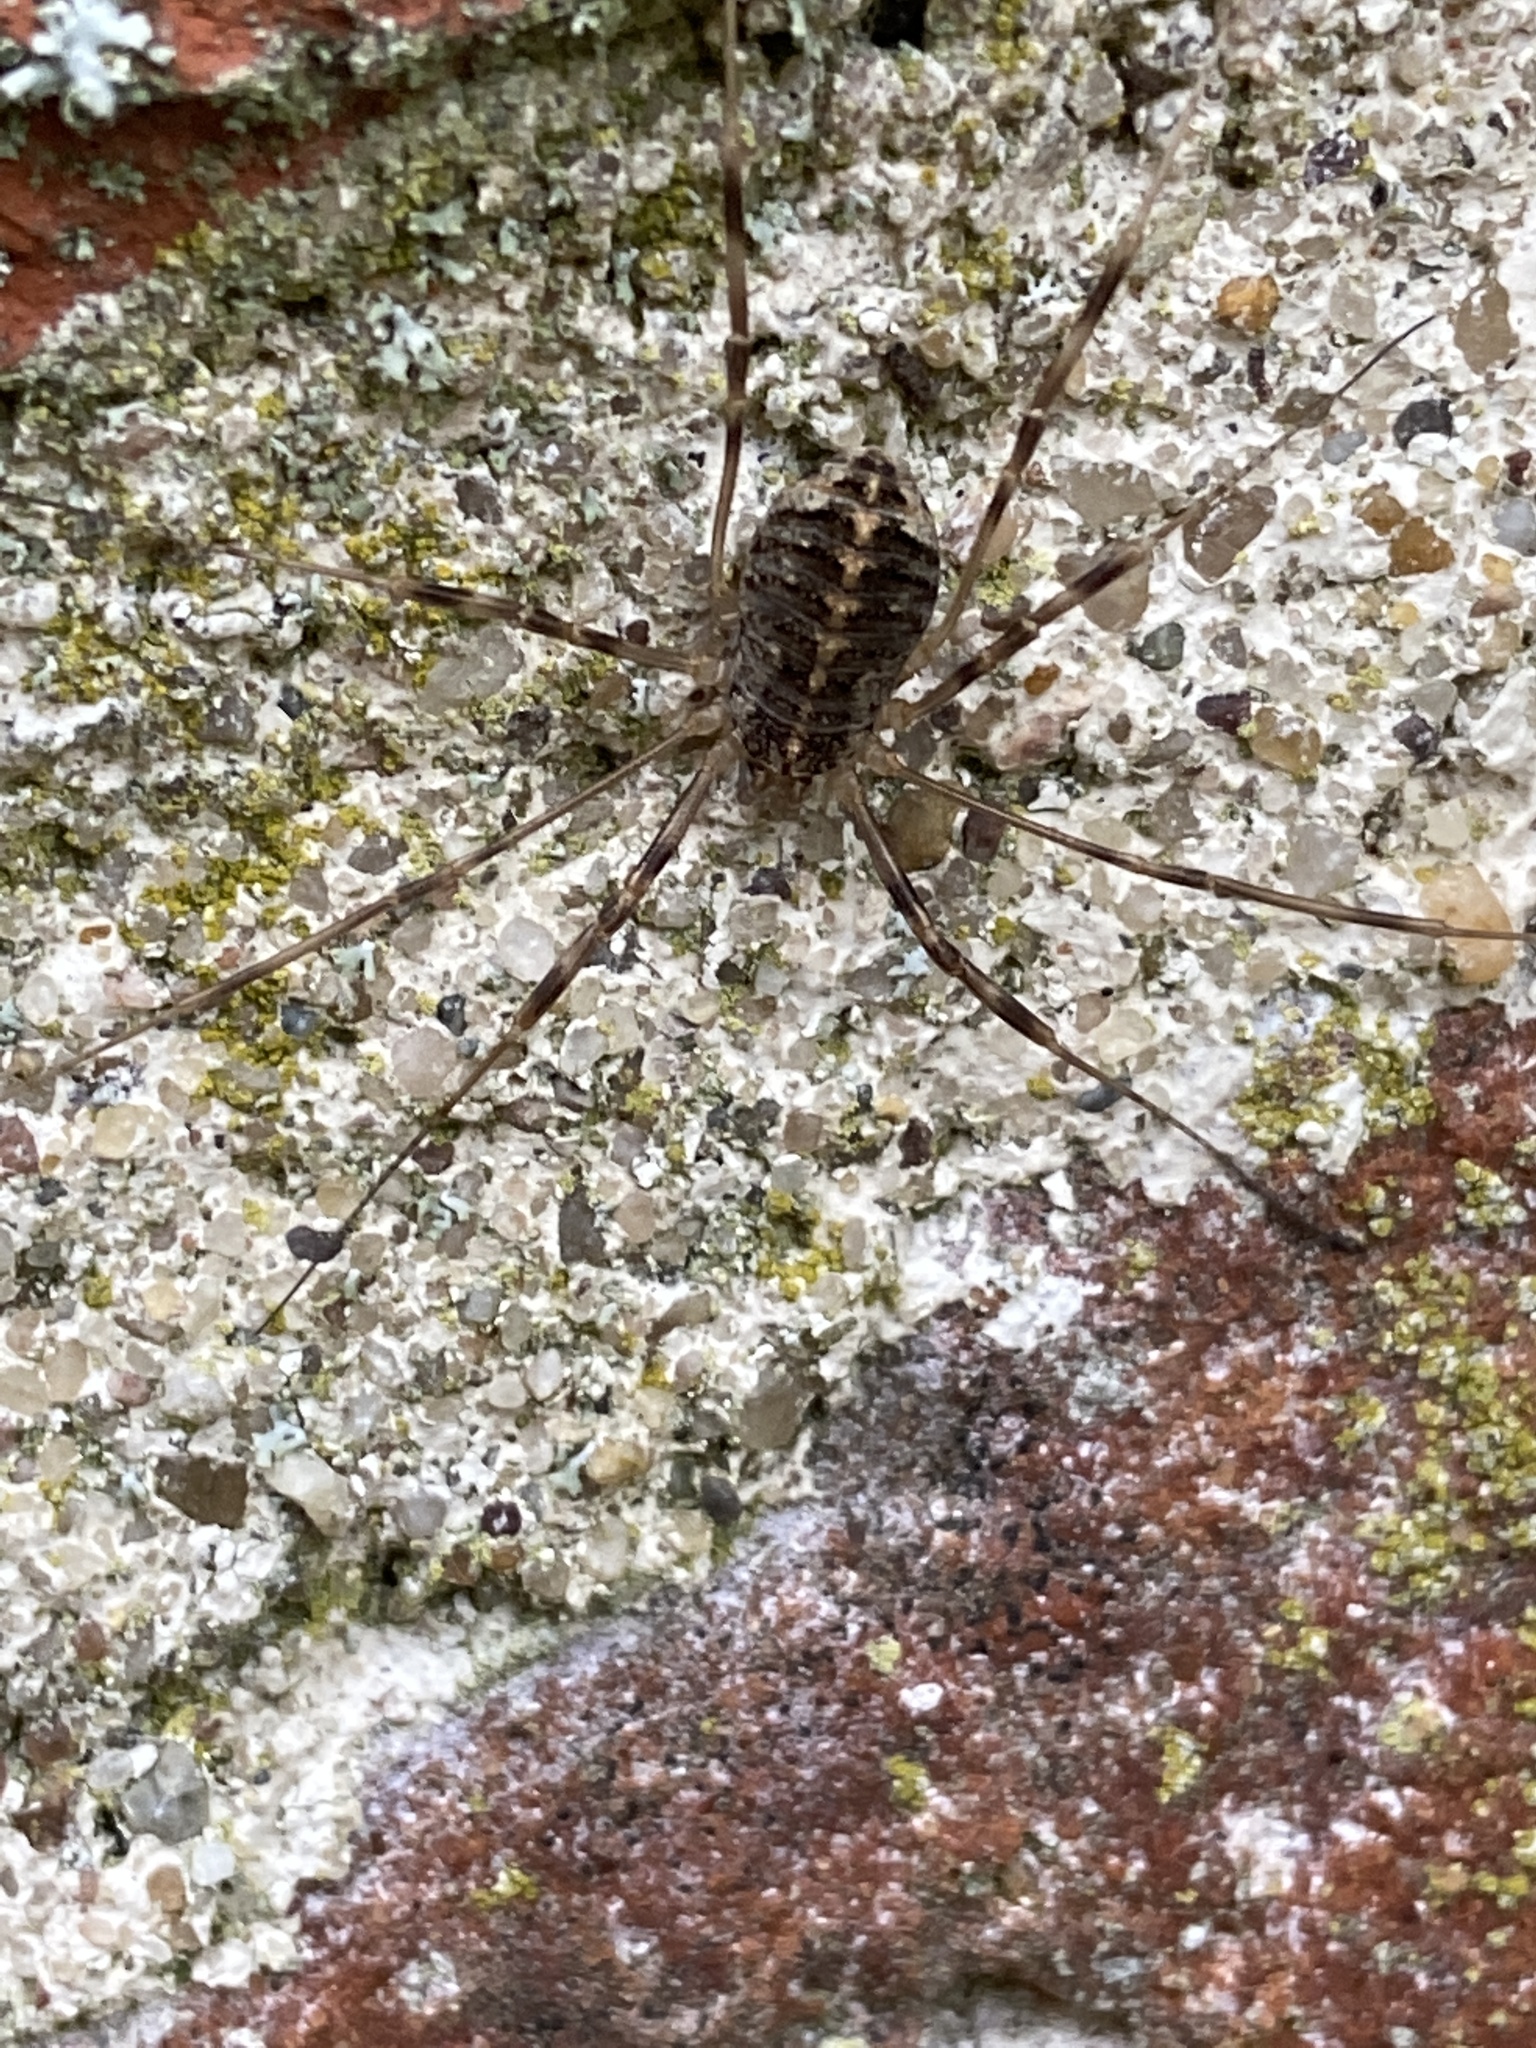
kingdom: Animalia
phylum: Arthropoda
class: Arachnida
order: Opiliones
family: Phalangiidae
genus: Opilio
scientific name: Opilio saxatilis
